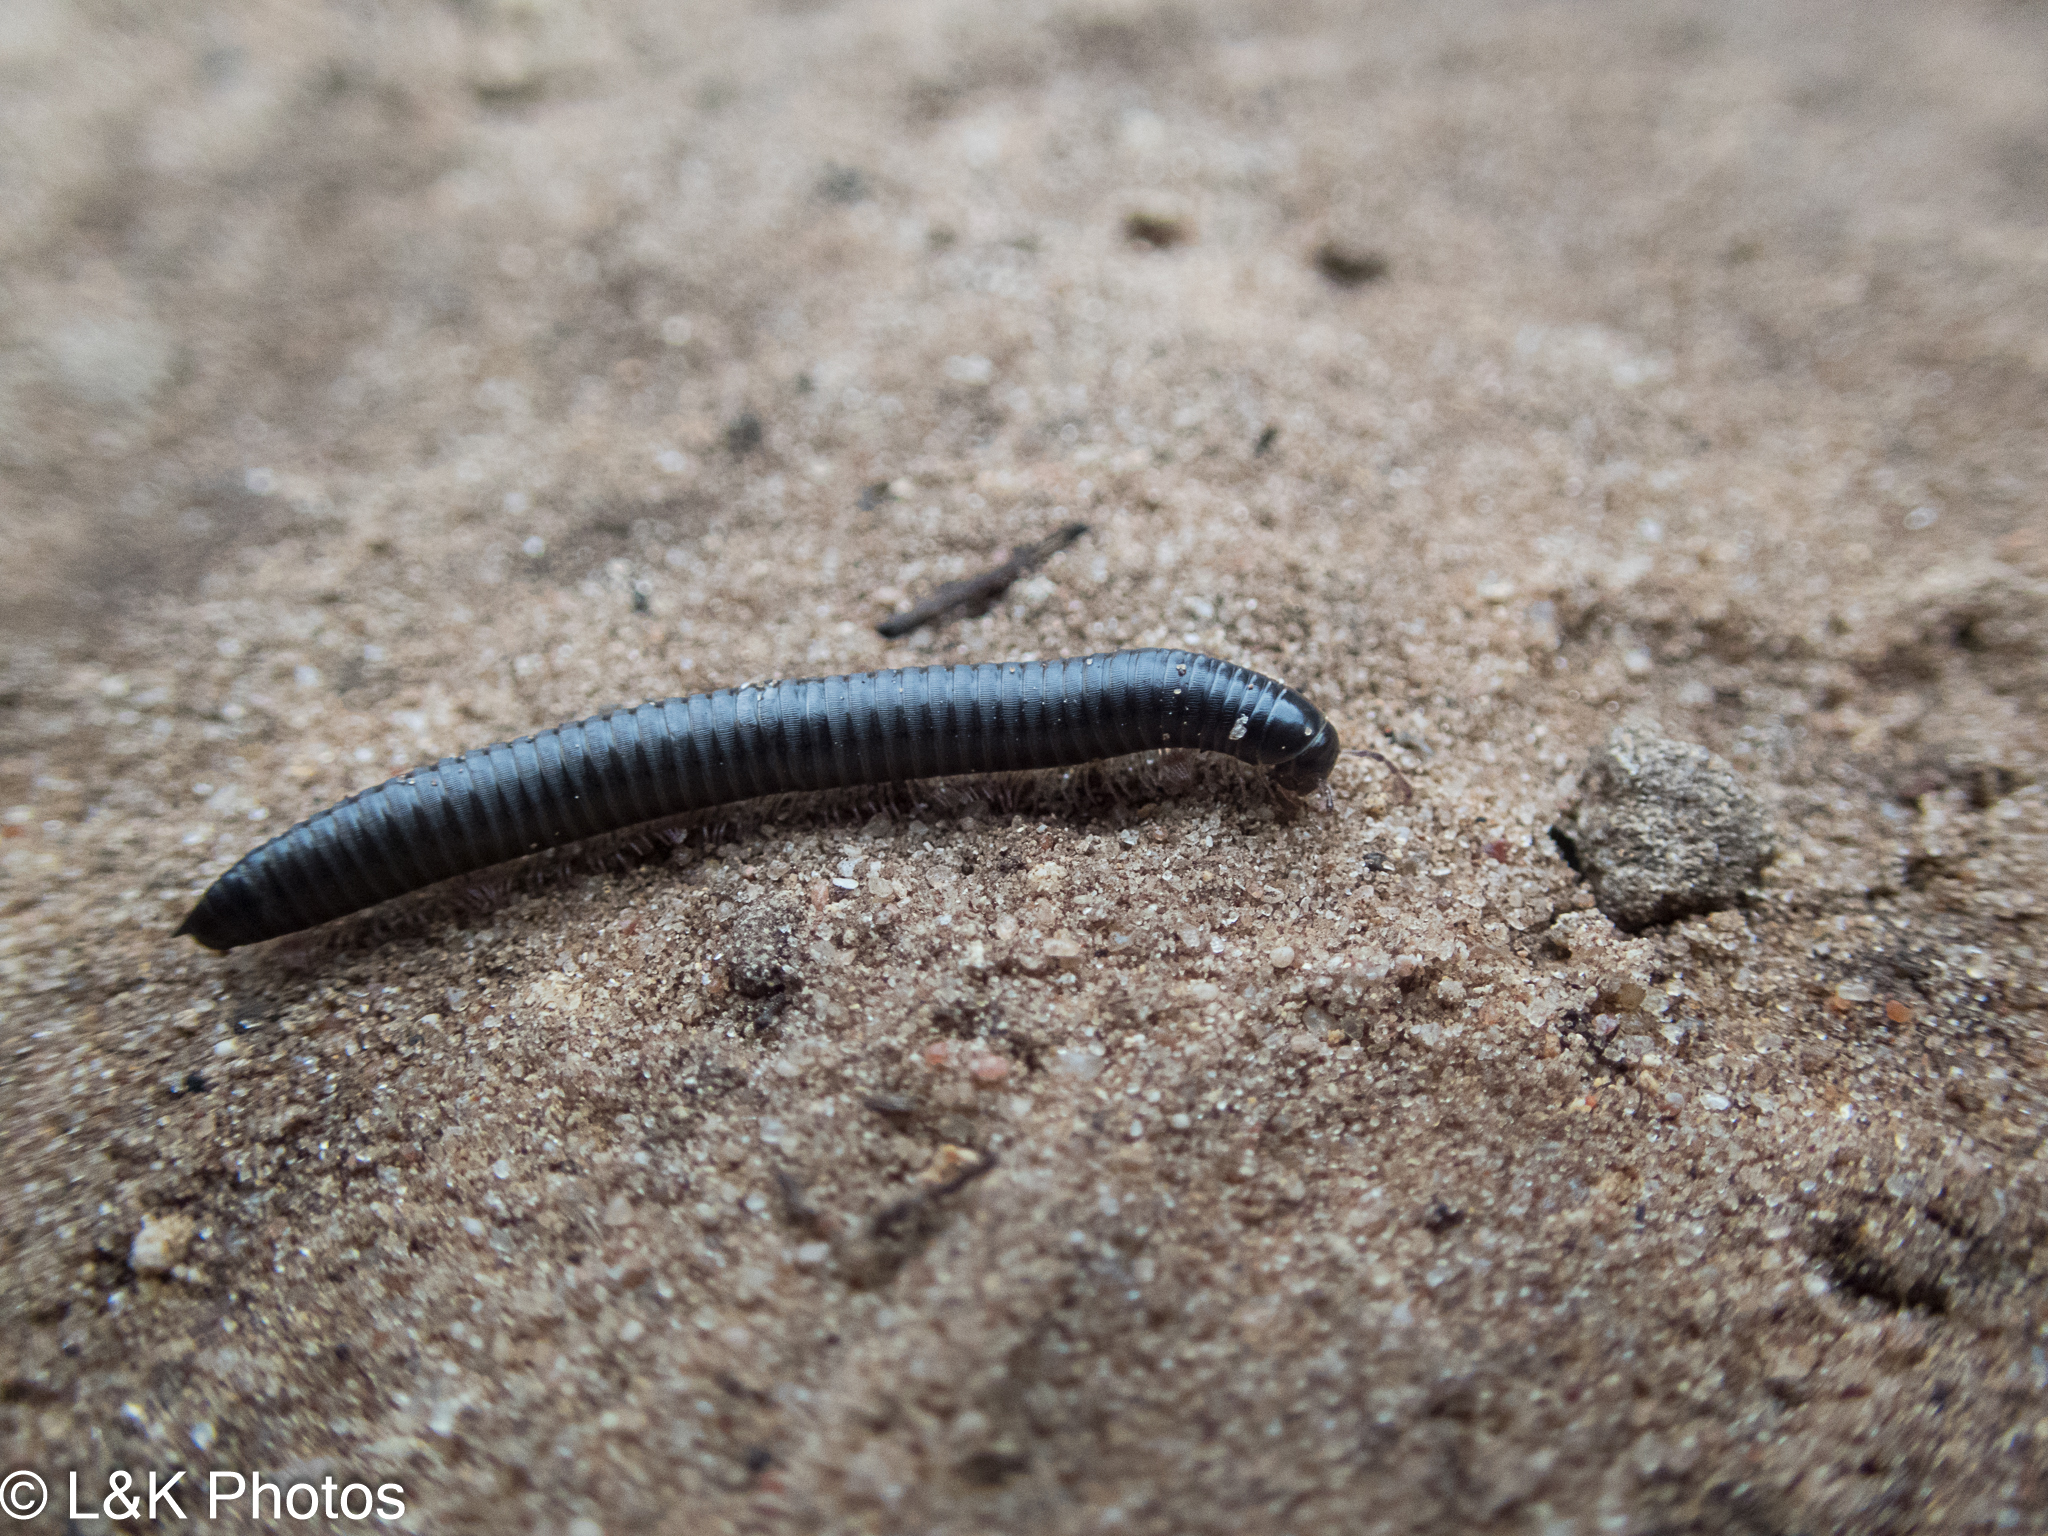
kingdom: Animalia
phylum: Arthropoda
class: Diplopoda
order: Julida
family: Julidae
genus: Ommatoiulus
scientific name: Ommatoiulus moreleti
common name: Portuguese millipede
